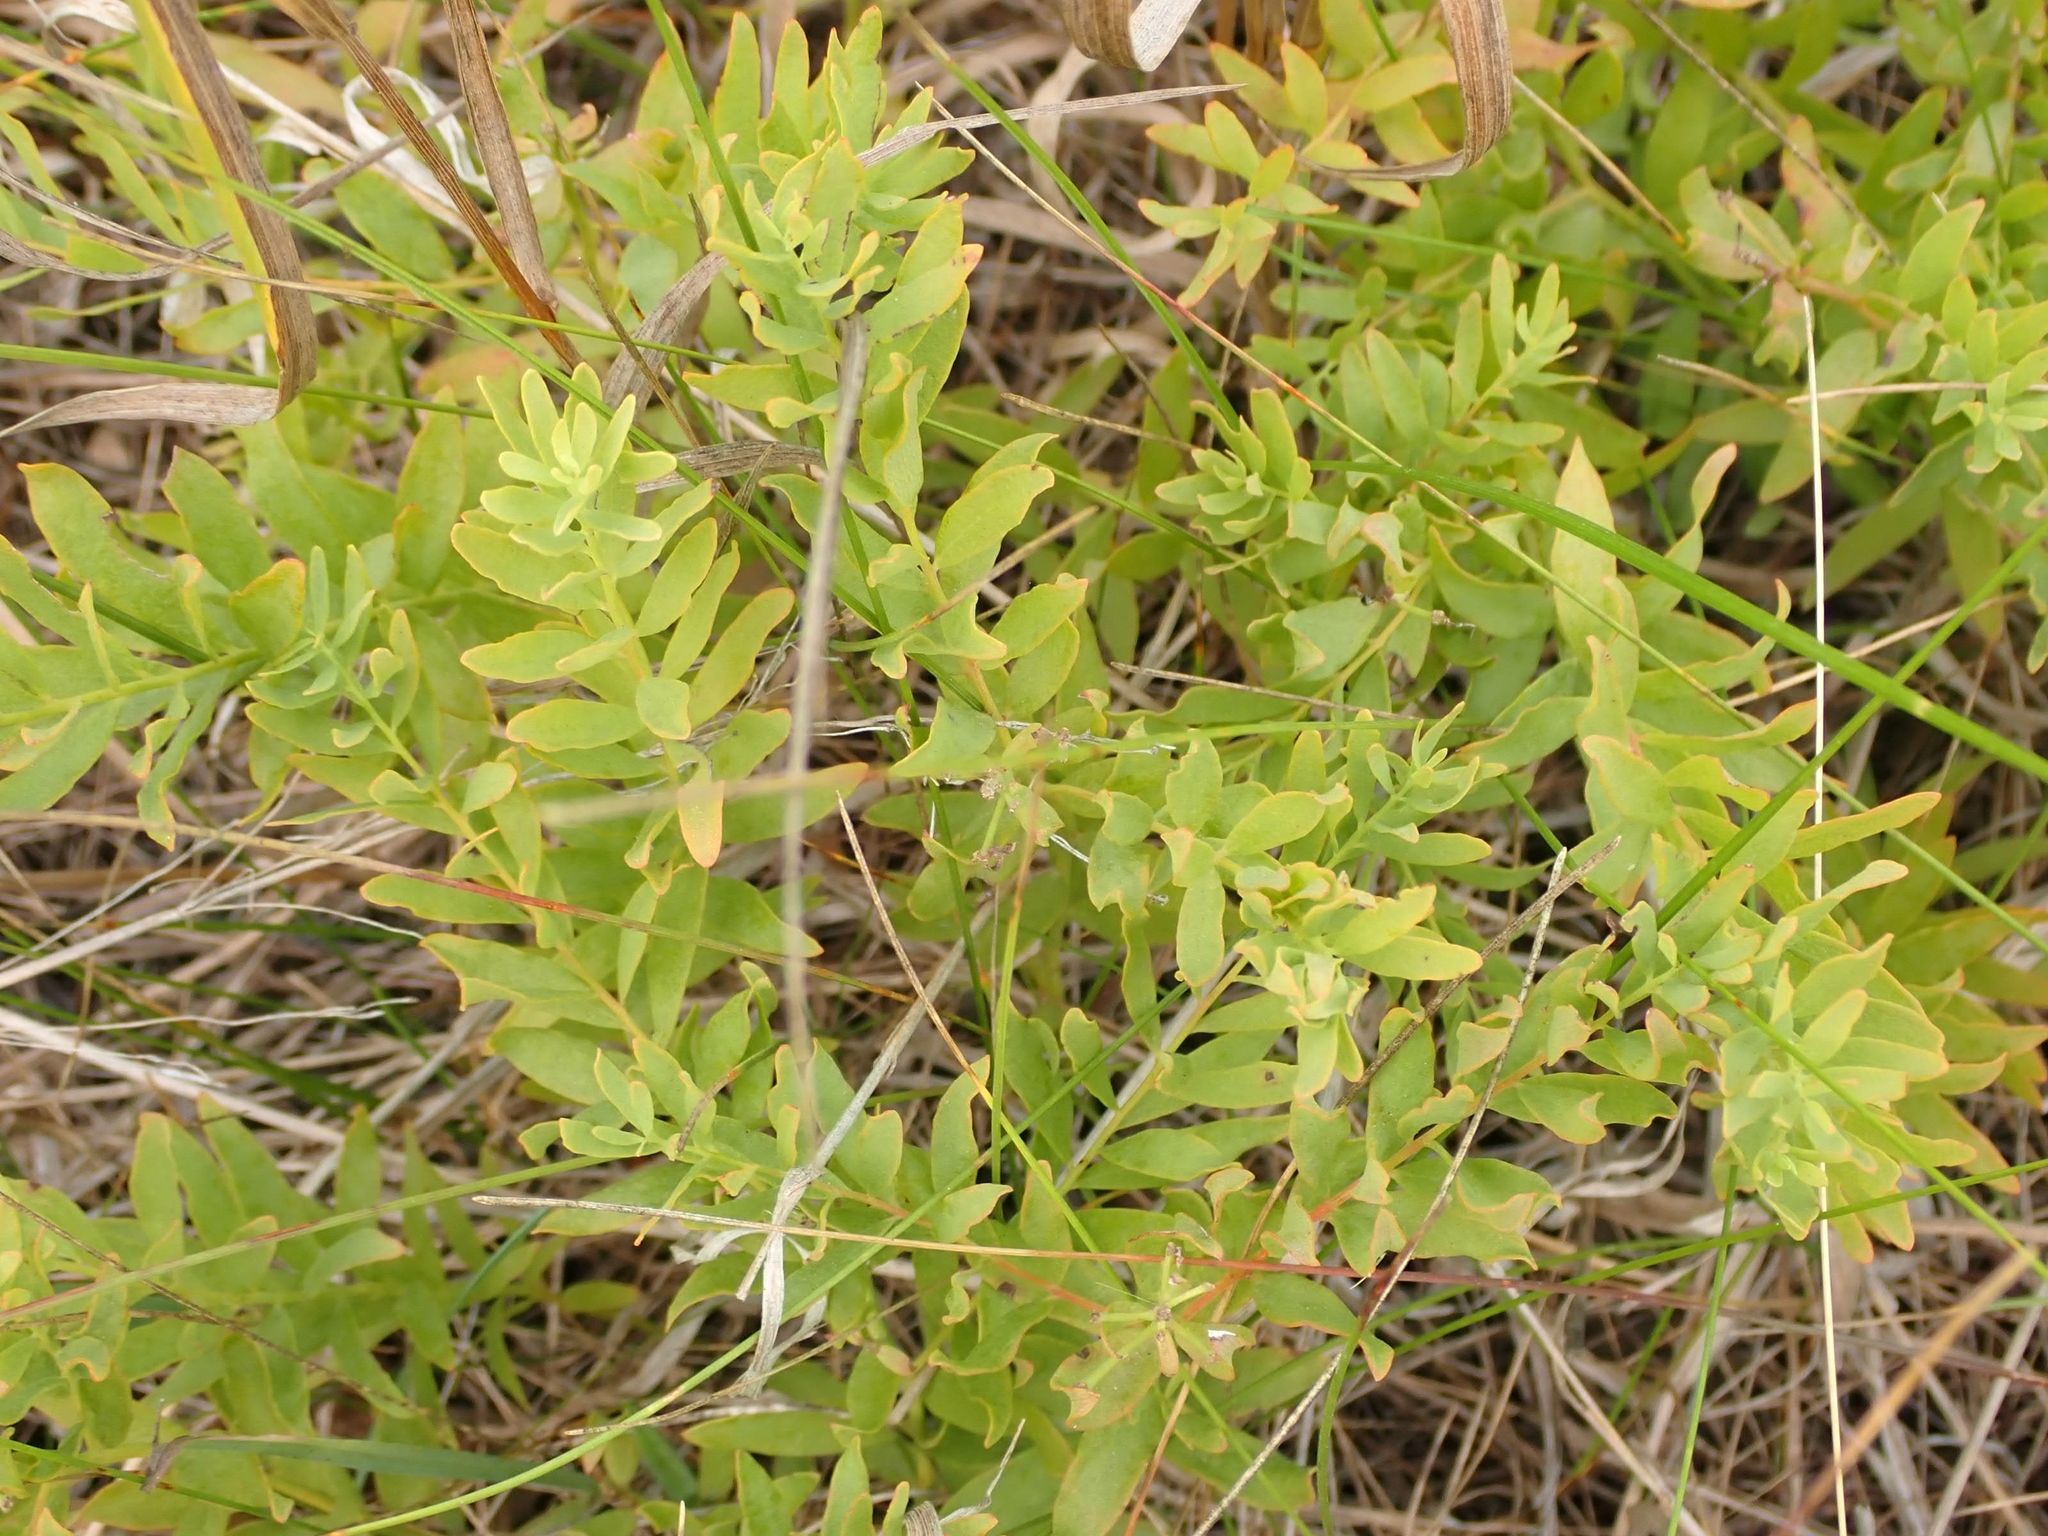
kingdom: Plantae
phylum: Tracheophyta
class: Magnoliopsida
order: Santalales
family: Comandraceae
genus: Comandra
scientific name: Comandra umbellata
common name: Bastard toadflax
